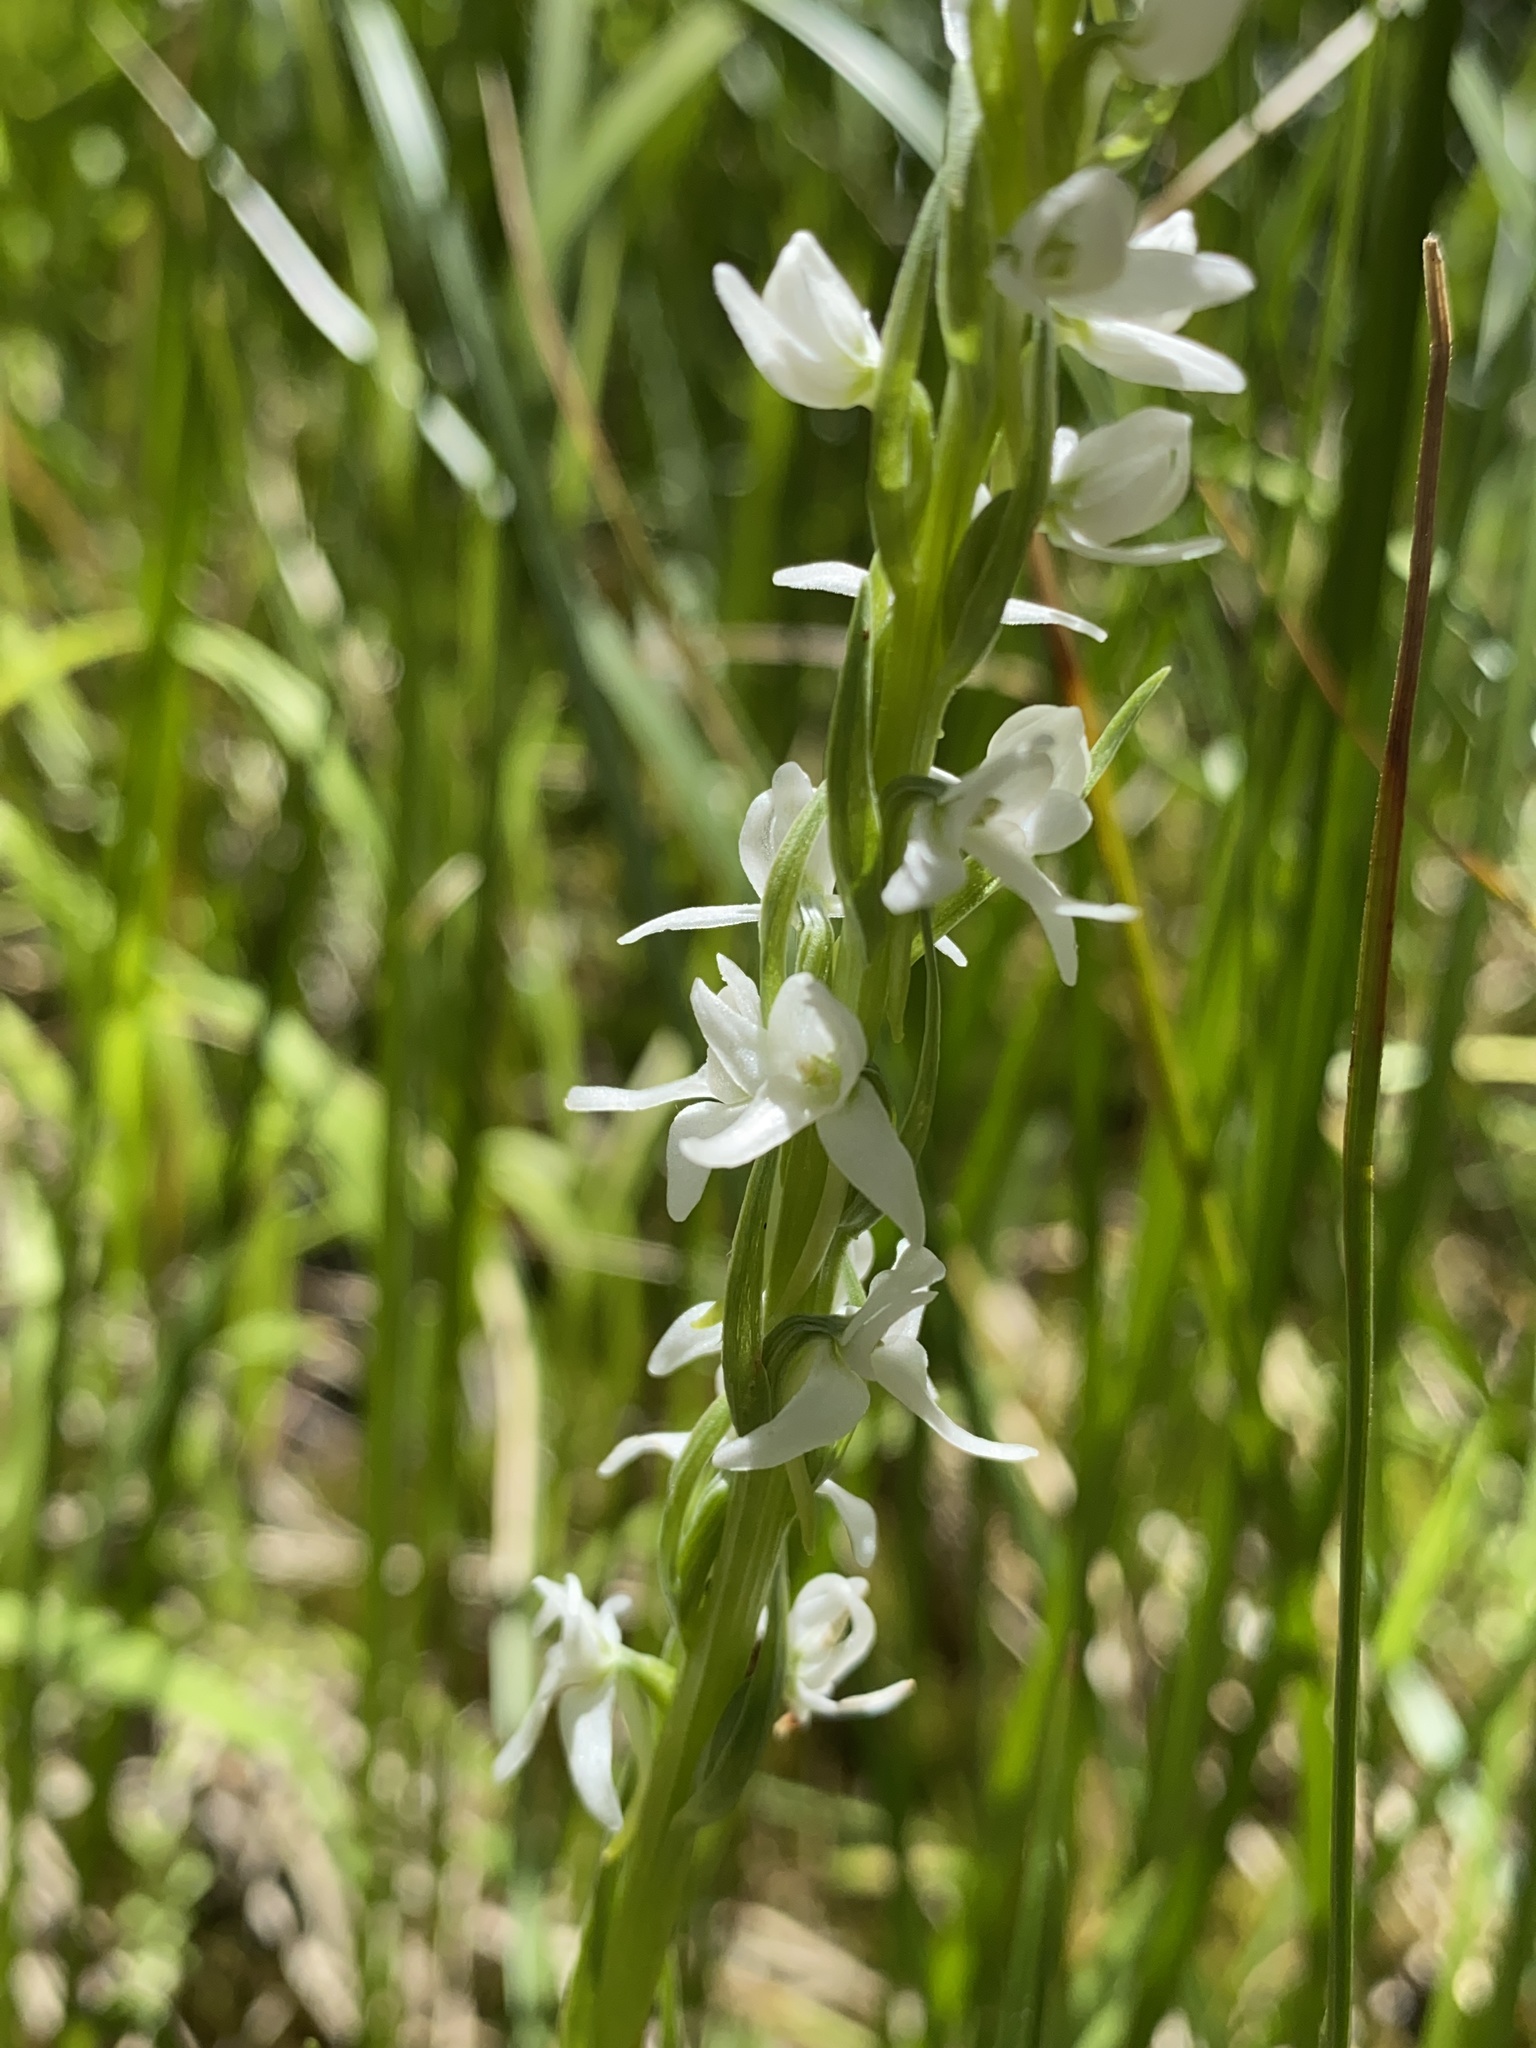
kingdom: Plantae
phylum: Tracheophyta
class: Liliopsida
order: Asparagales
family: Orchidaceae
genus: Platanthera
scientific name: Platanthera dilatata
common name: Bog candles
